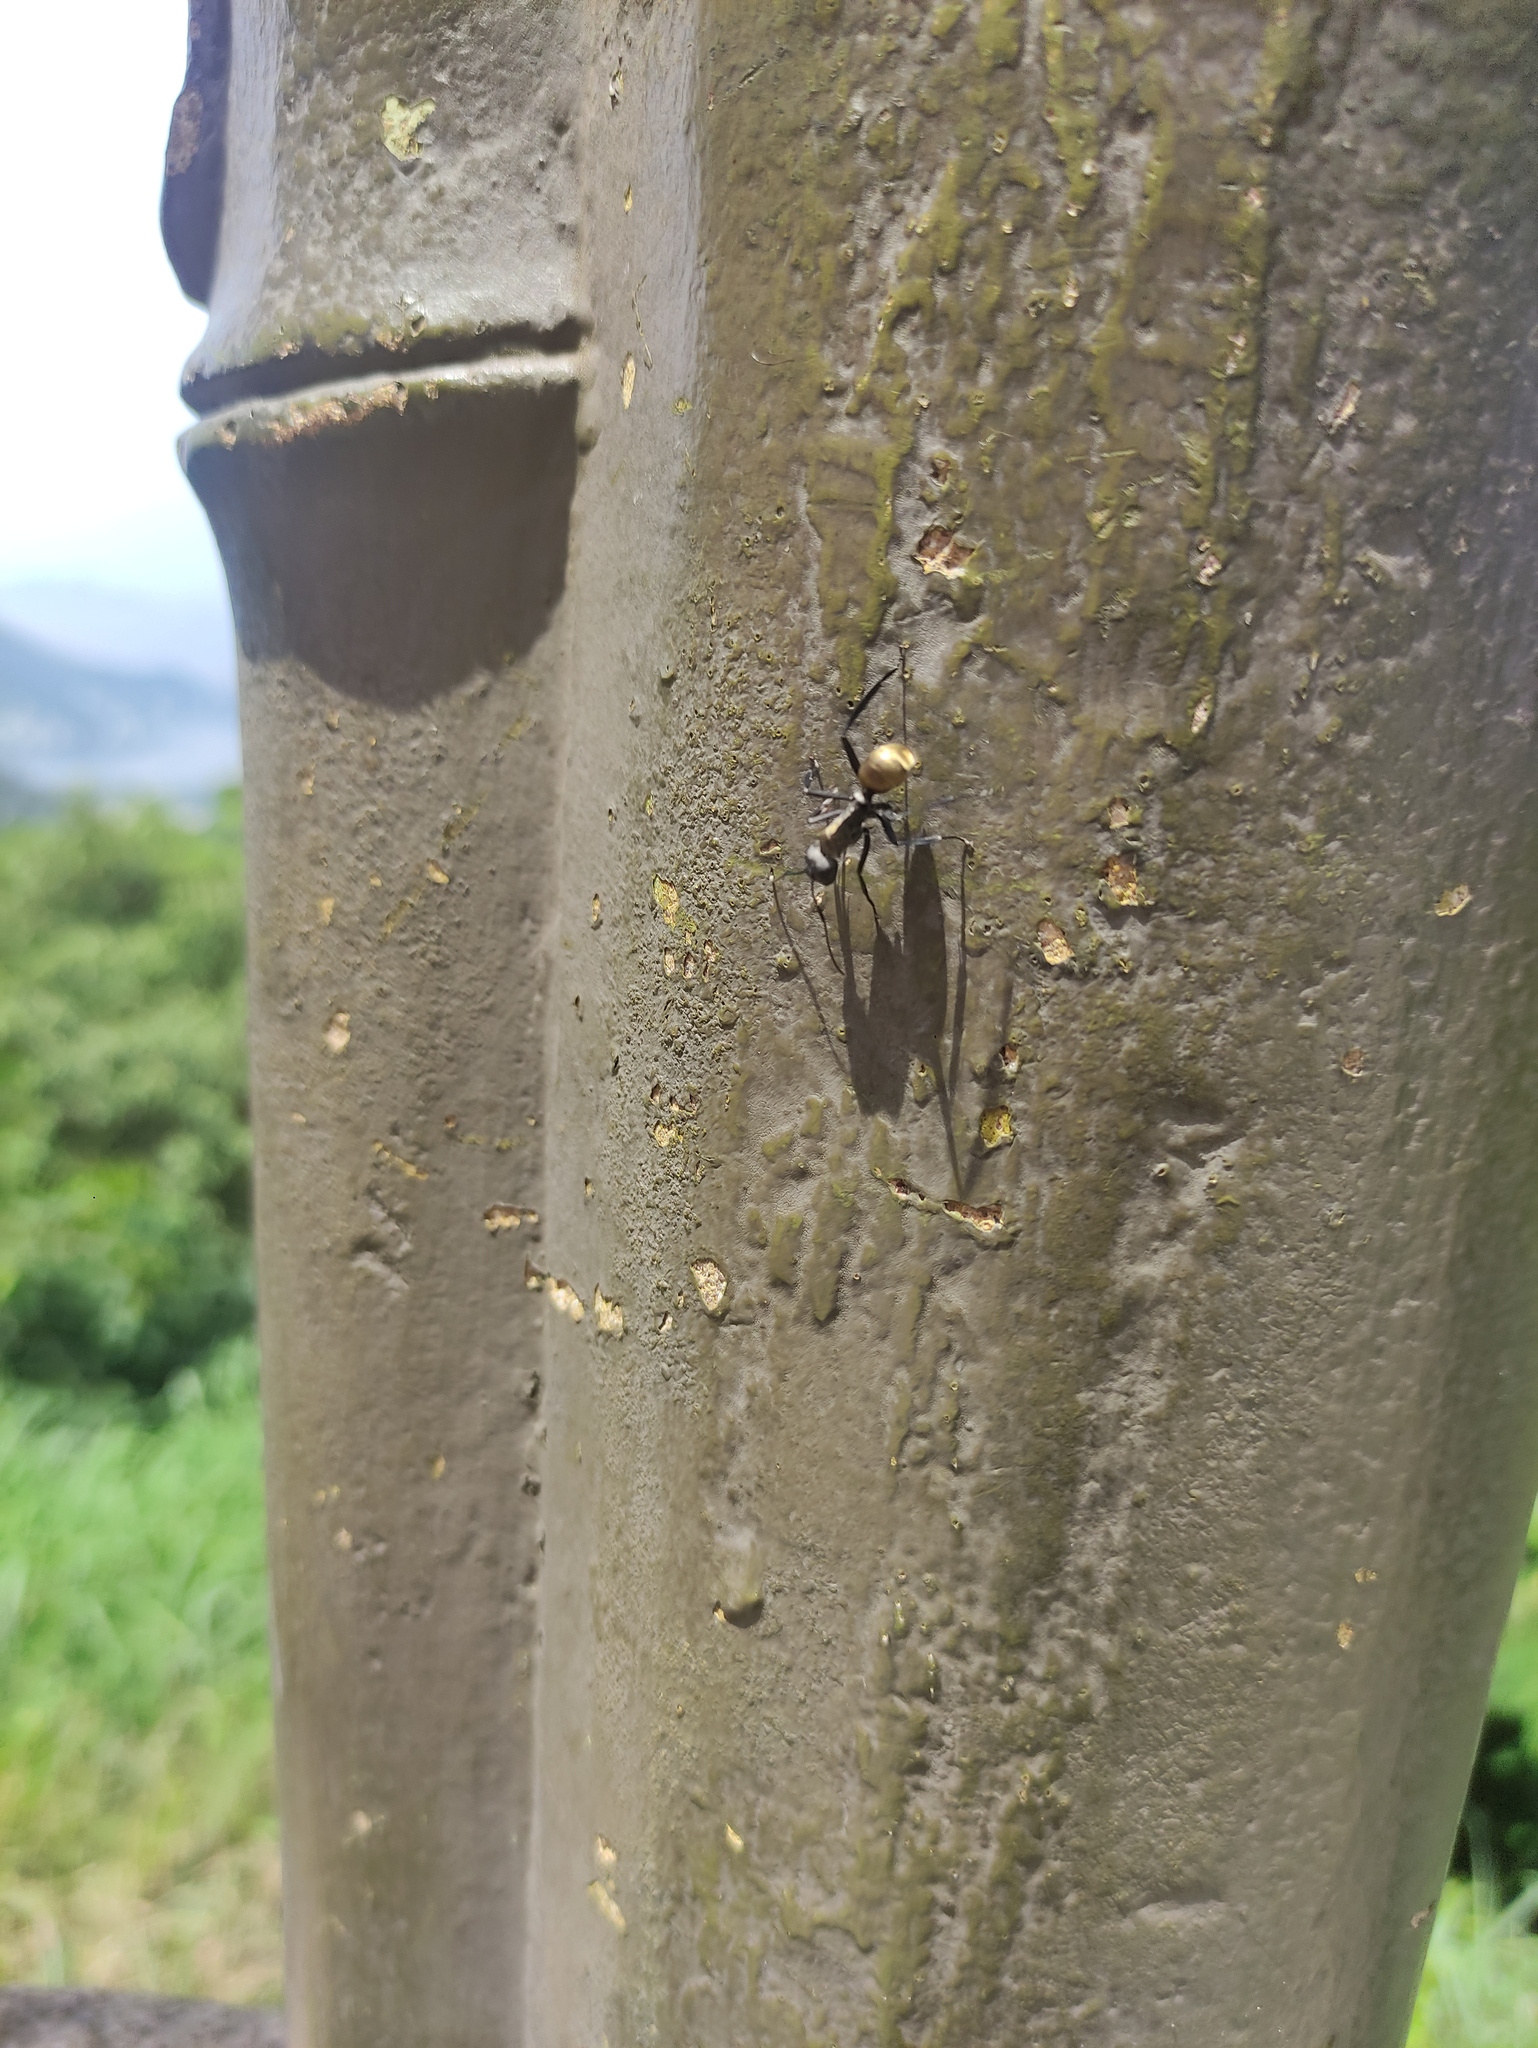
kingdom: Animalia
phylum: Arthropoda
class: Insecta
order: Hymenoptera
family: Formicidae
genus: Camponotus
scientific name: Camponotus sericeiventris
